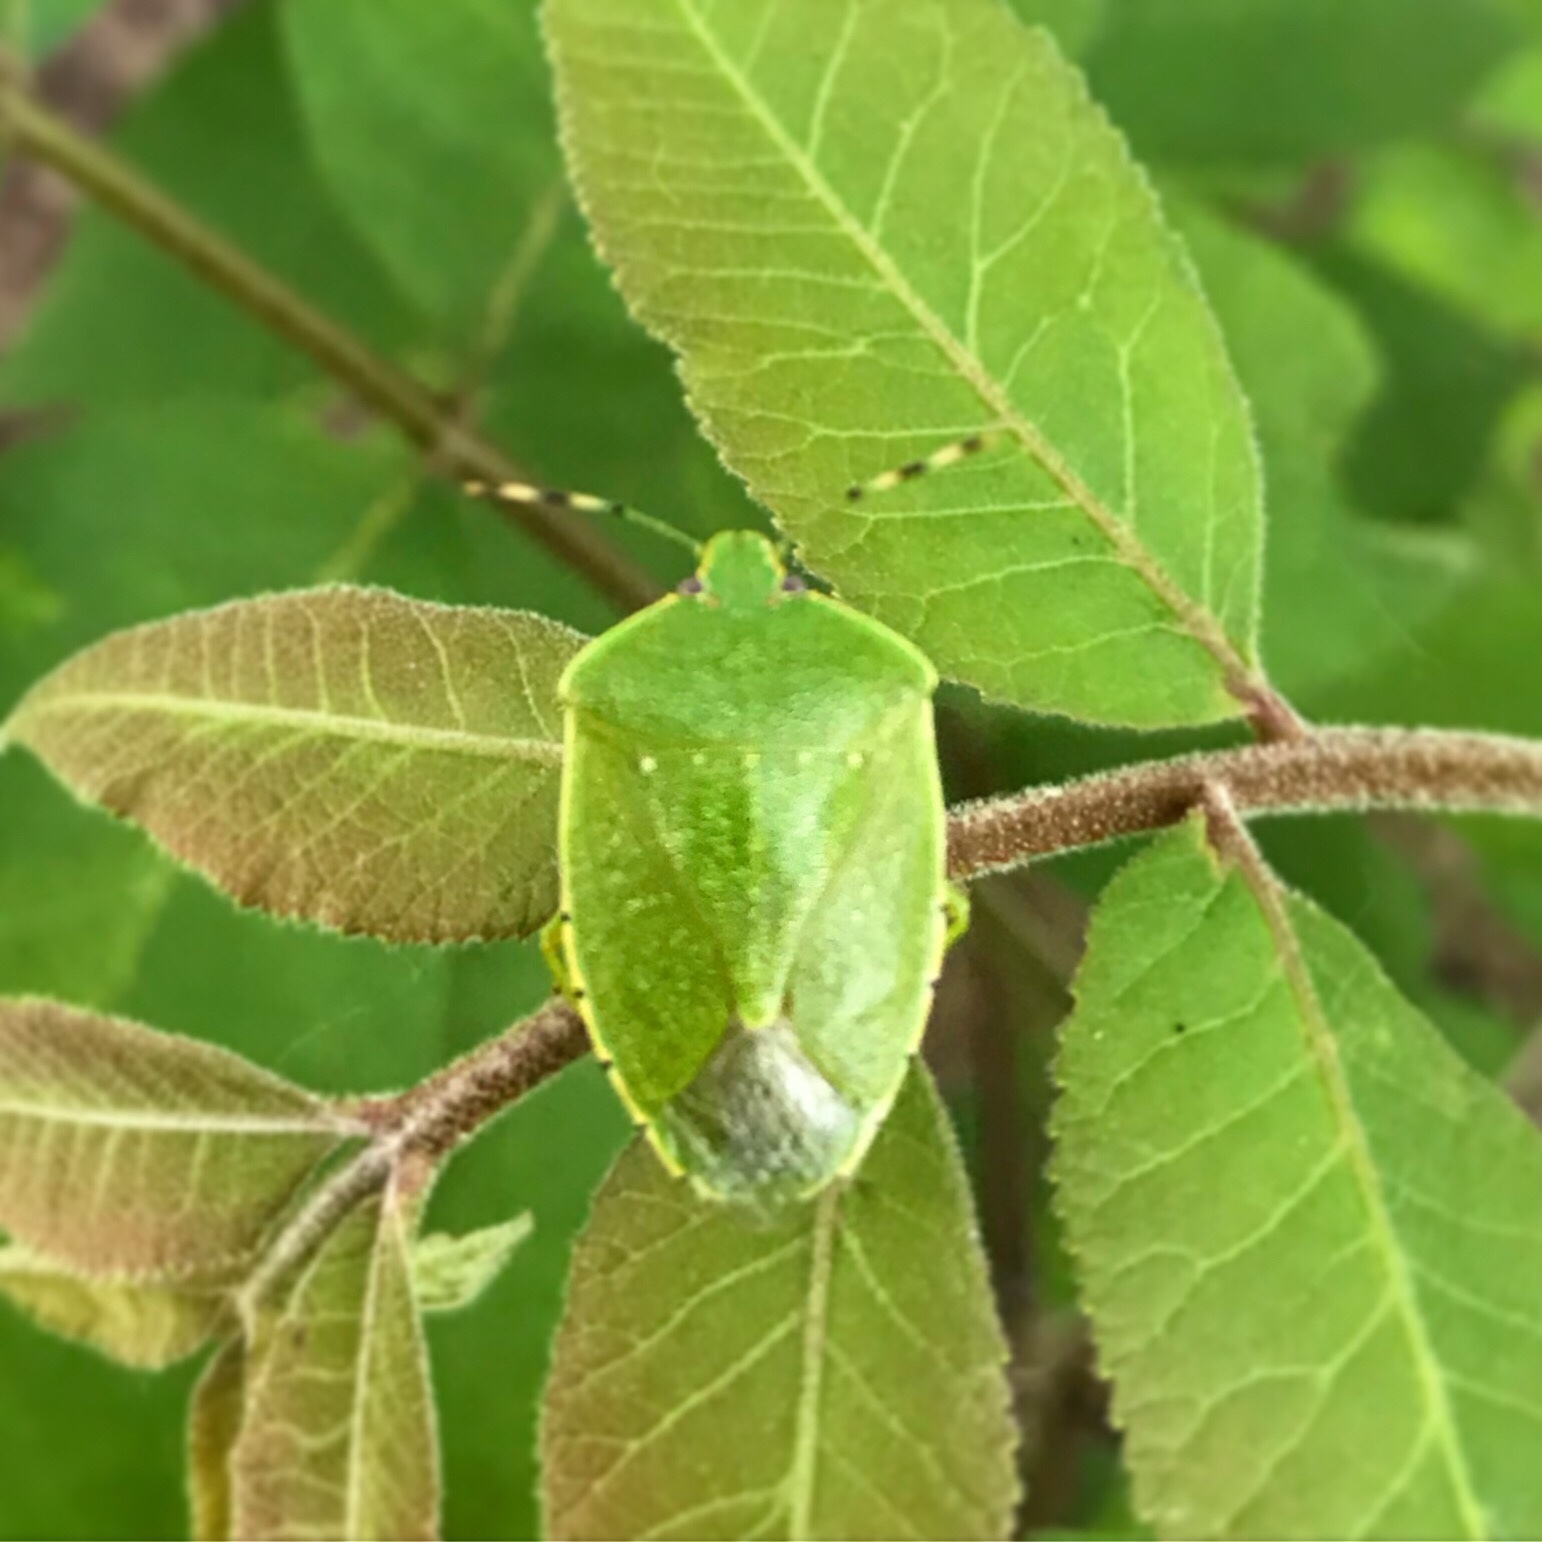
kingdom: Animalia
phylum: Arthropoda
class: Insecta
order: Hemiptera
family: Pentatomidae
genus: Chinavia
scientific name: Chinavia hilaris
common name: Green stink bug
